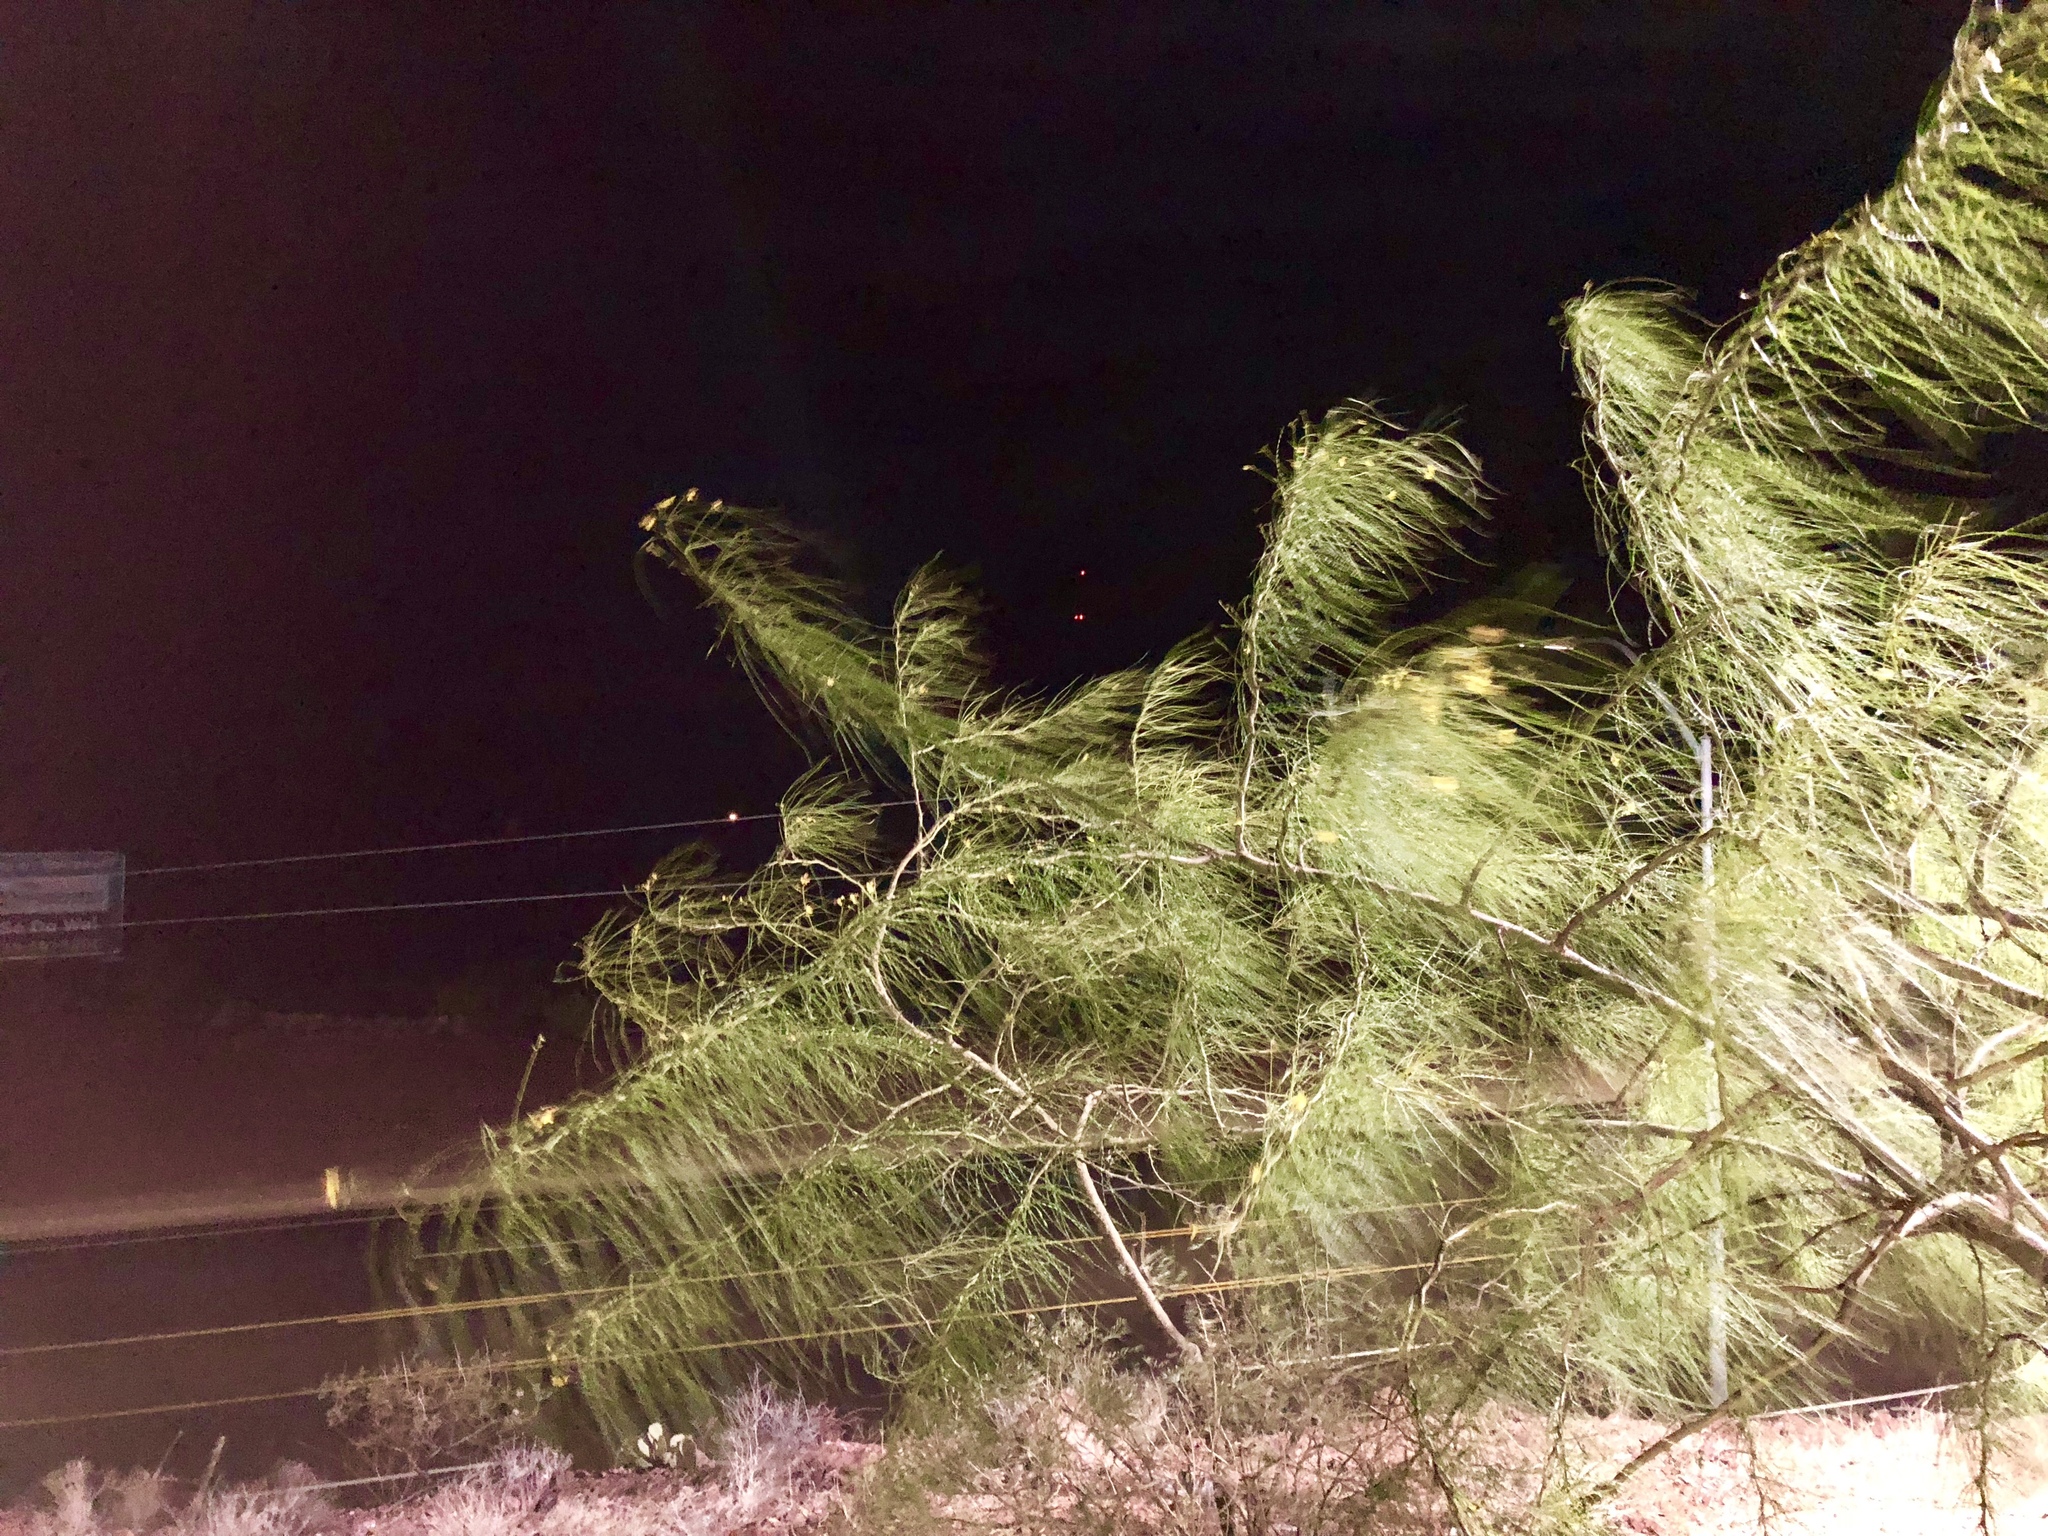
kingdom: Plantae
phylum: Tracheophyta
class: Magnoliopsida
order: Fabales
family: Fabaceae
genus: Parkinsonia
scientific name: Parkinsonia aculeata
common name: Jerusalem thorn
